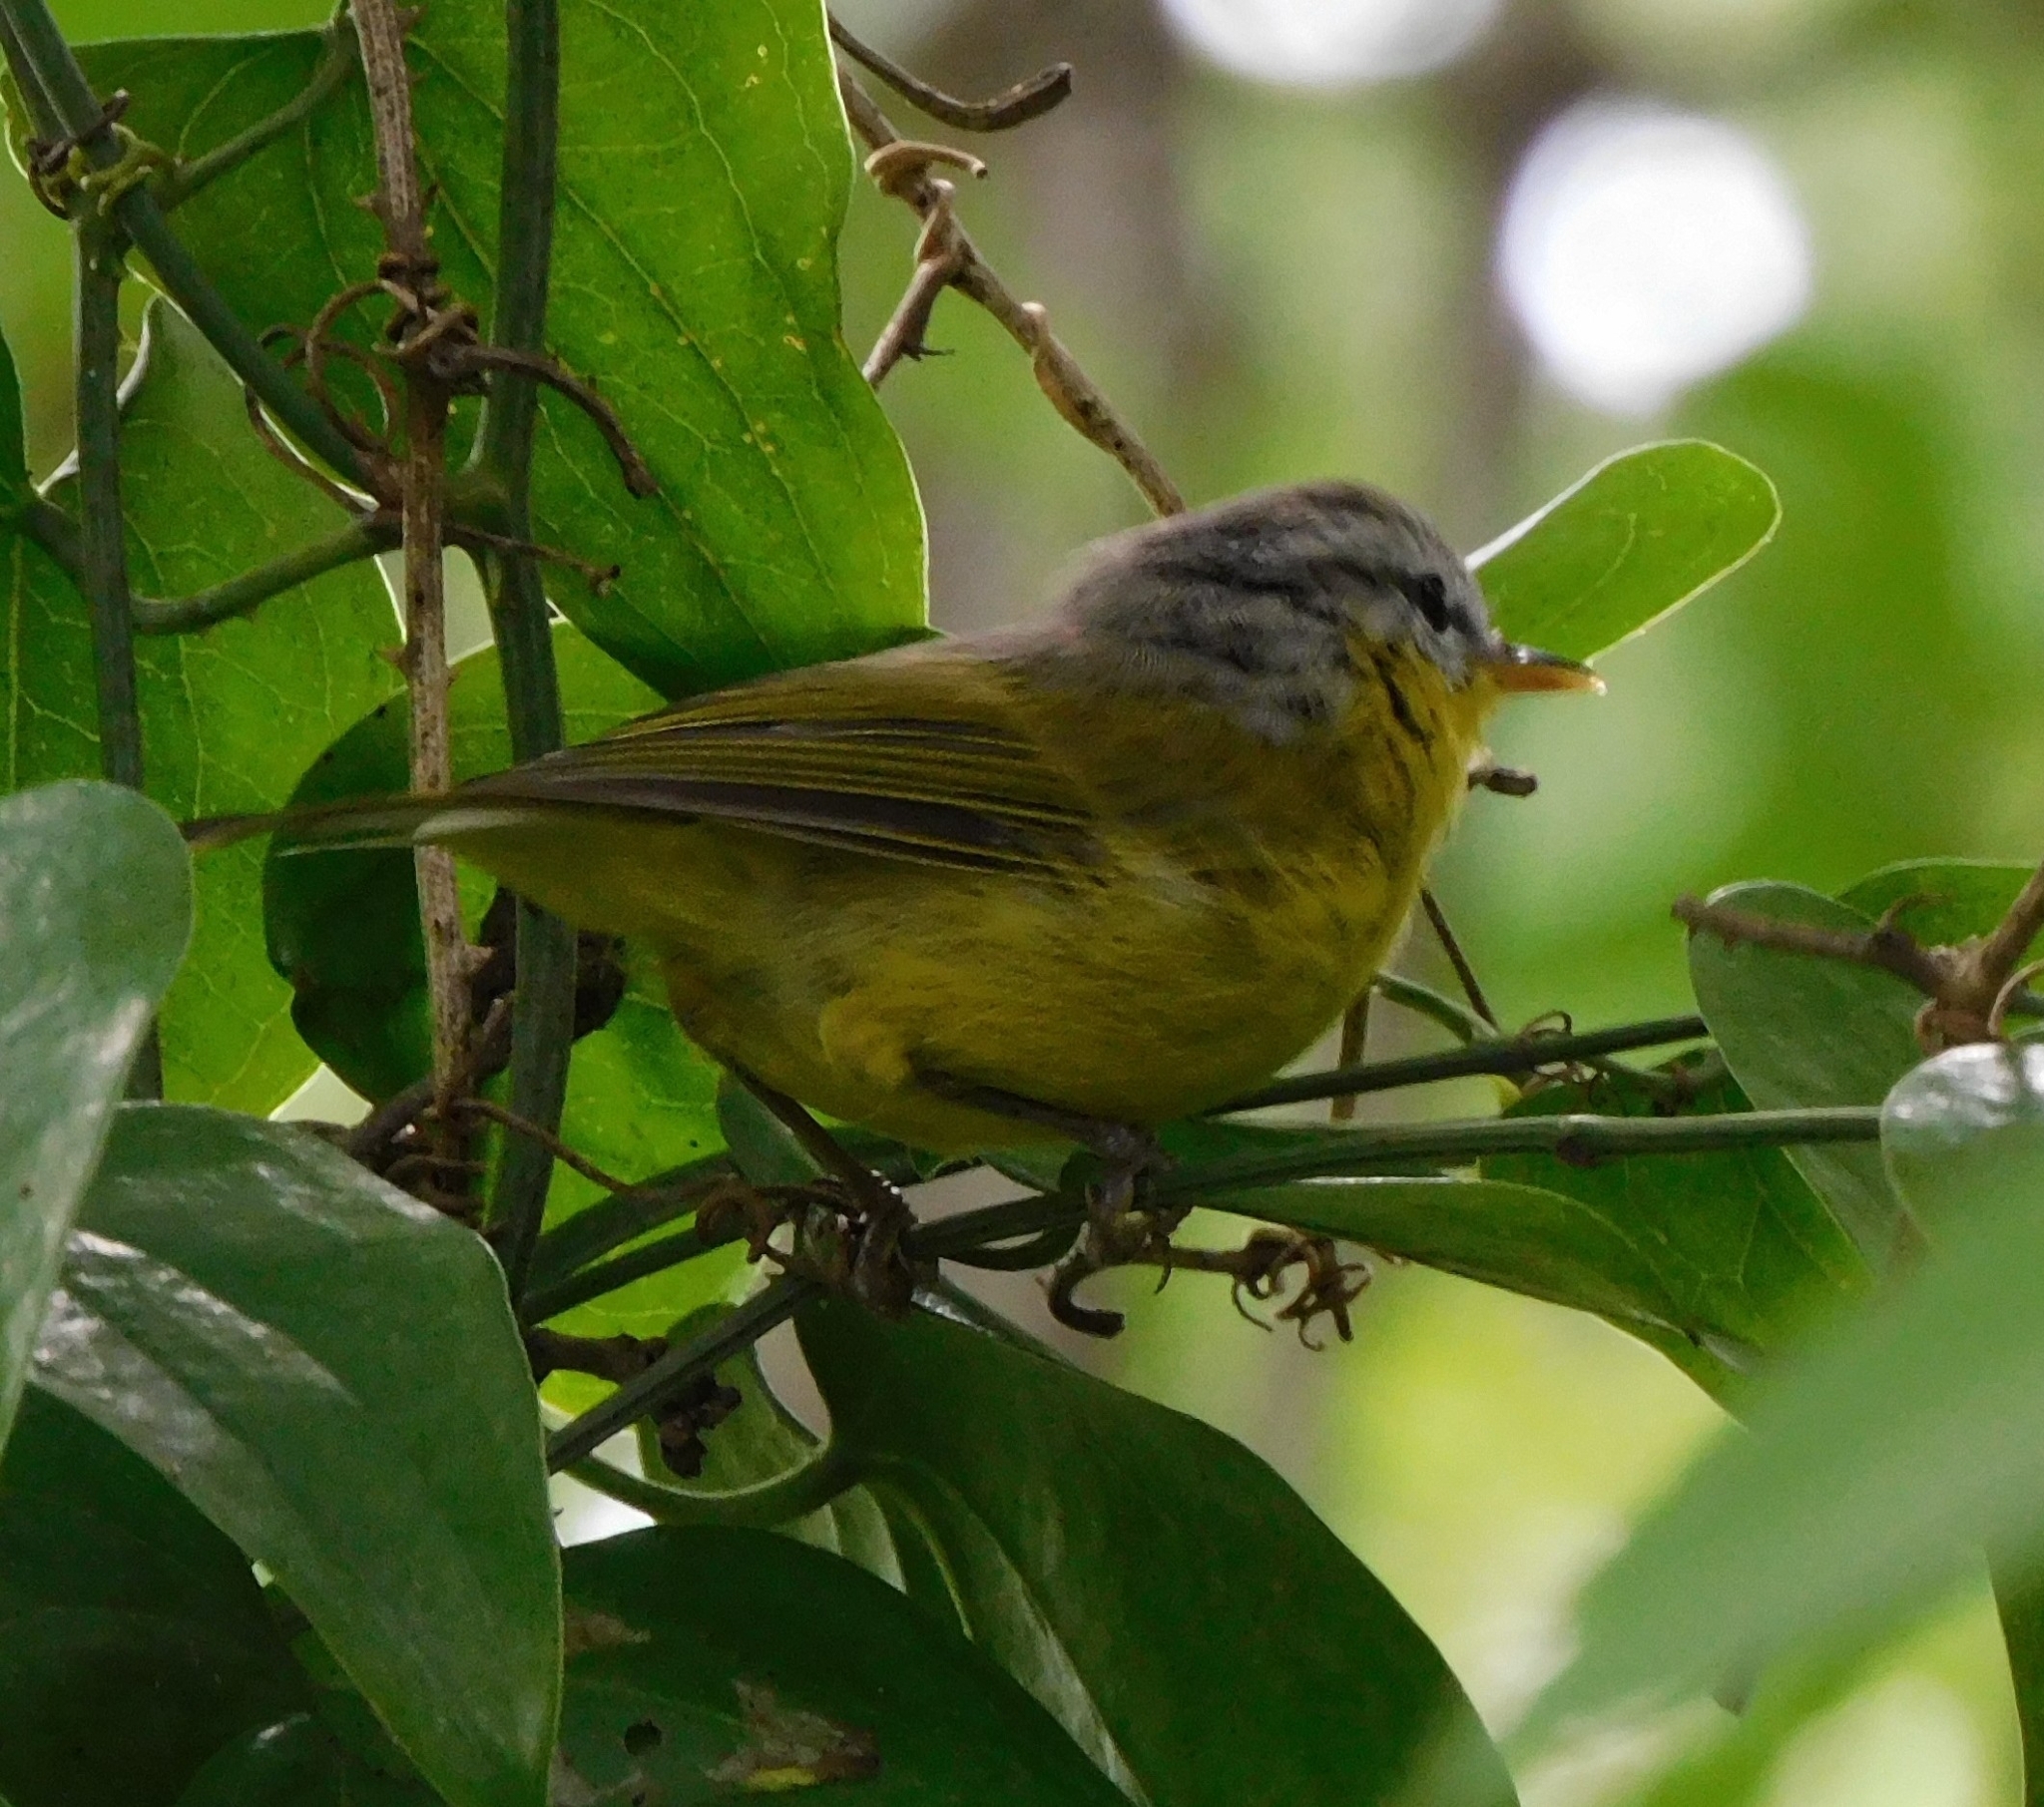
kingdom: Animalia
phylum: Chordata
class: Aves
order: Passeriformes
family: Phylloscopidae
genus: Phylloscopus
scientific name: Phylloscopus xanthoschistos
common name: Grey-hooded warbler
